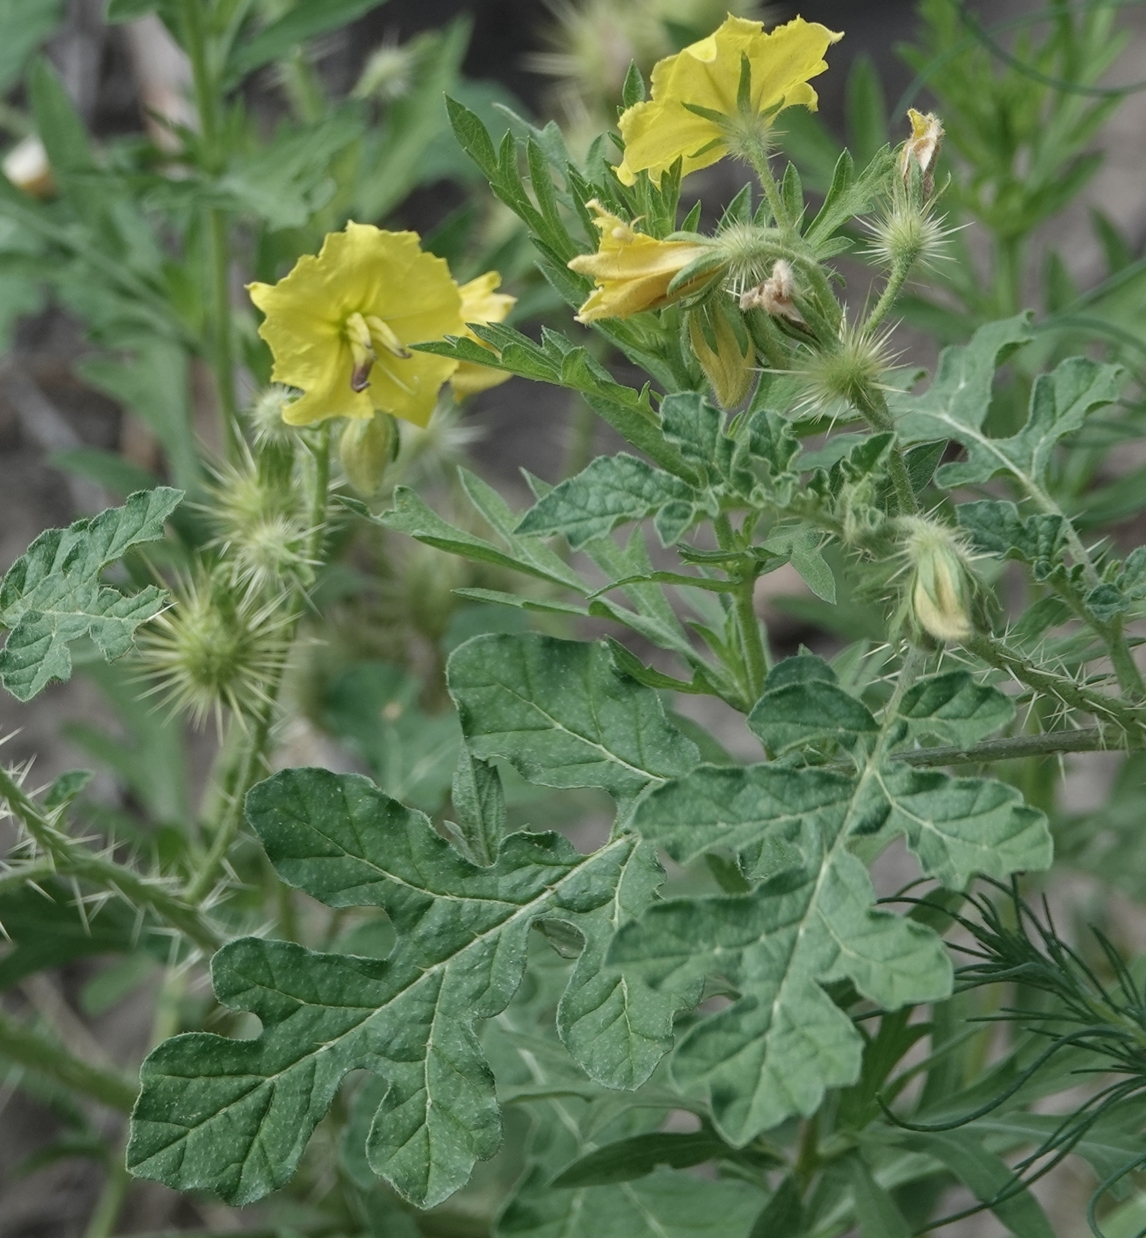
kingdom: Plantae
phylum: Tracheophyta
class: Magnoliopsida
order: Solanales
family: Solanaceae
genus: Solanum
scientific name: Solanum angustifolium
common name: Buffalobur nightshade
